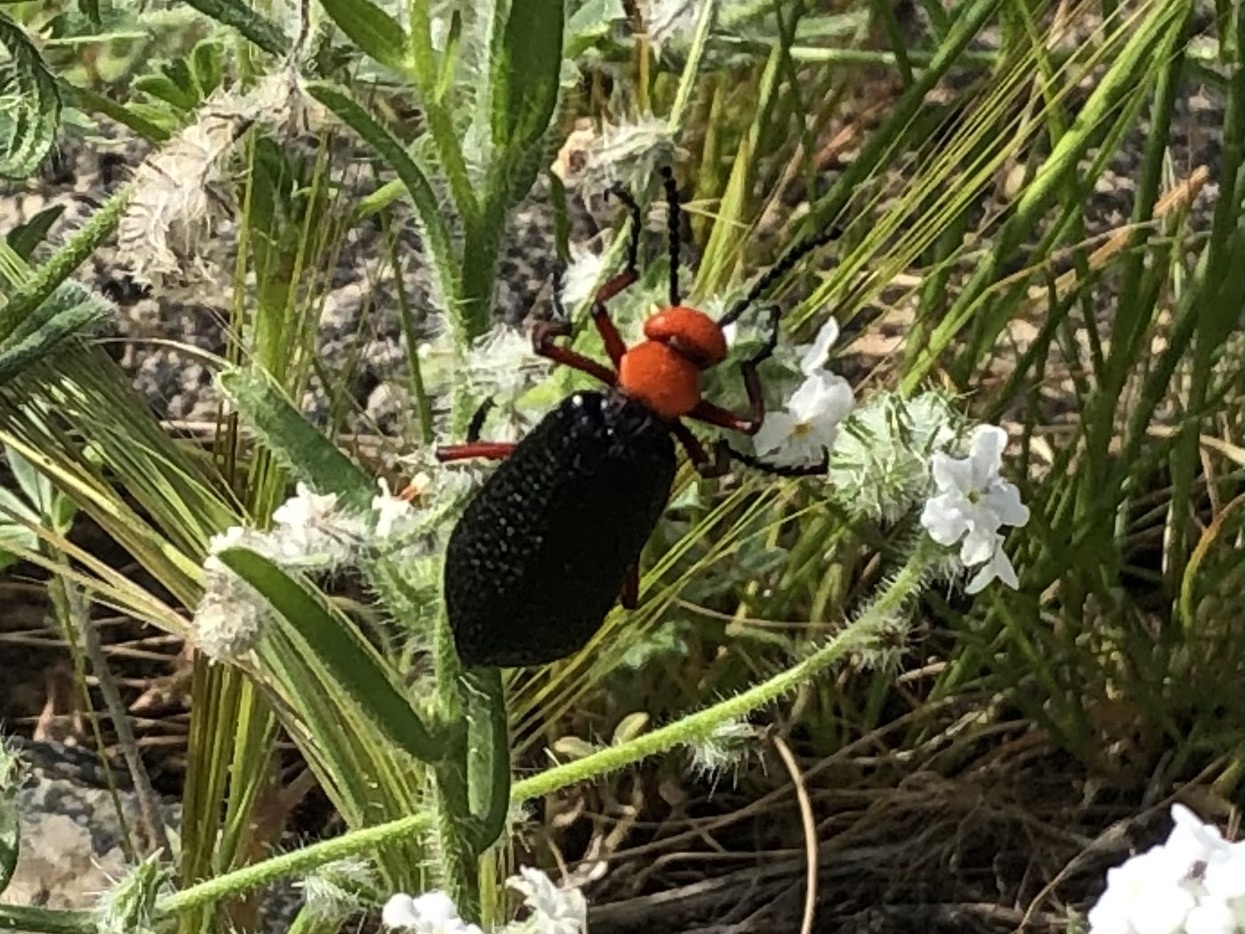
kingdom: Animalia
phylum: Arthropoda
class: Insecta
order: Coleoptera
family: Meloidae
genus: Lytta
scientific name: Lytta magister
